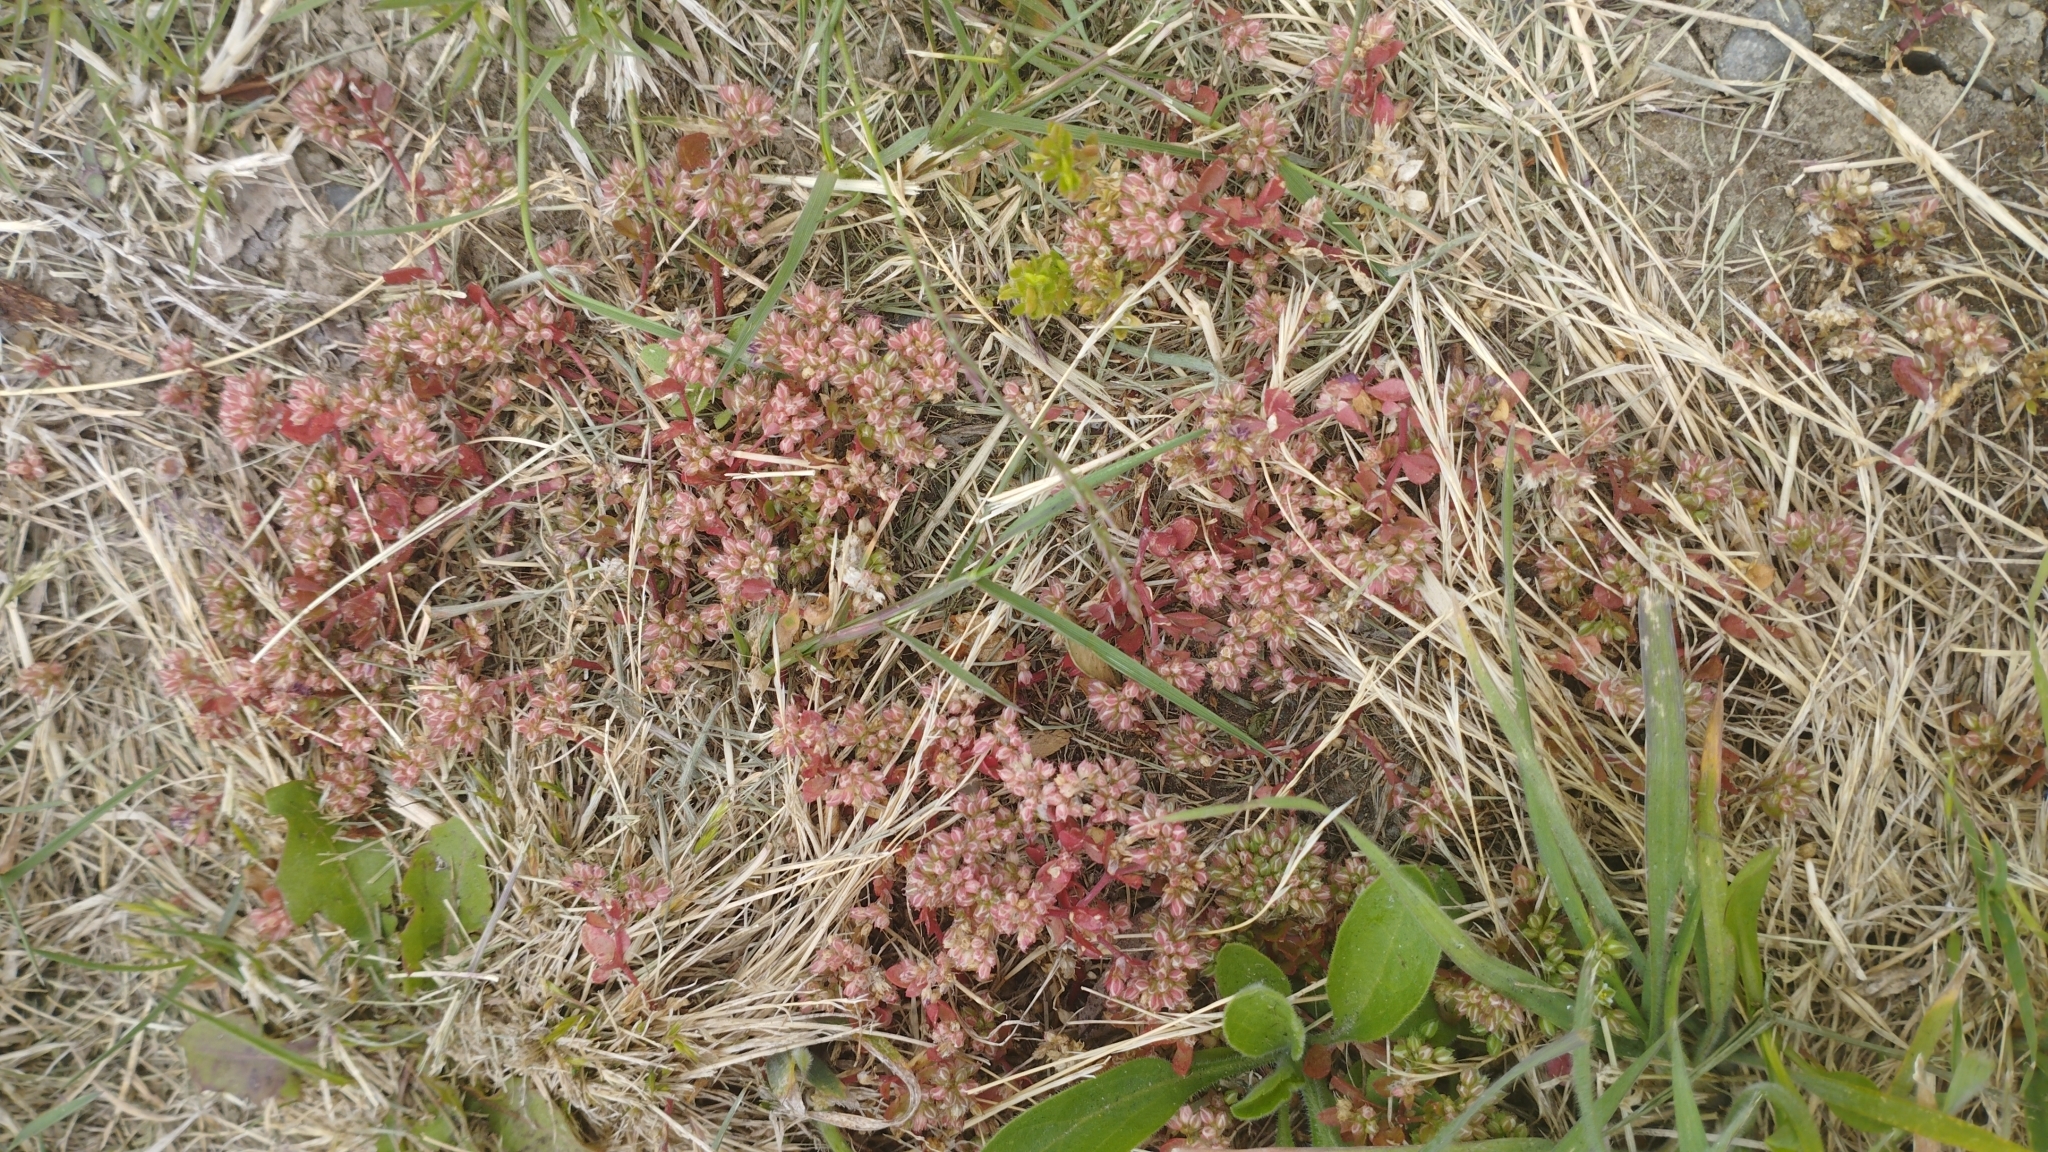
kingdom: Plantae
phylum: Tracheophyta
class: Magnoliopsida
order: Caryophyllales
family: Caryophyllaceae
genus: Polycarpon
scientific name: Polycarpon tetraphyllum
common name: Four-leaved all-seed
